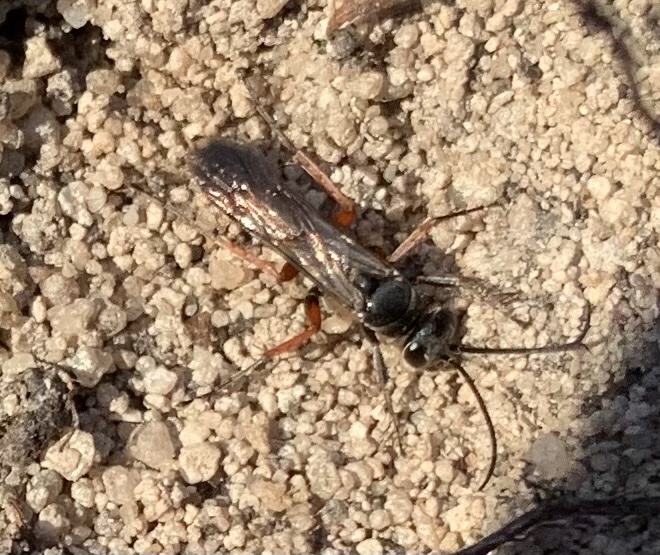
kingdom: Animalia
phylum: Arthropoda
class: Insecta
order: Hymenoptera
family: Pompilidae
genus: Episyron
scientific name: Episyron rufipes
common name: Red legged spider wasp
